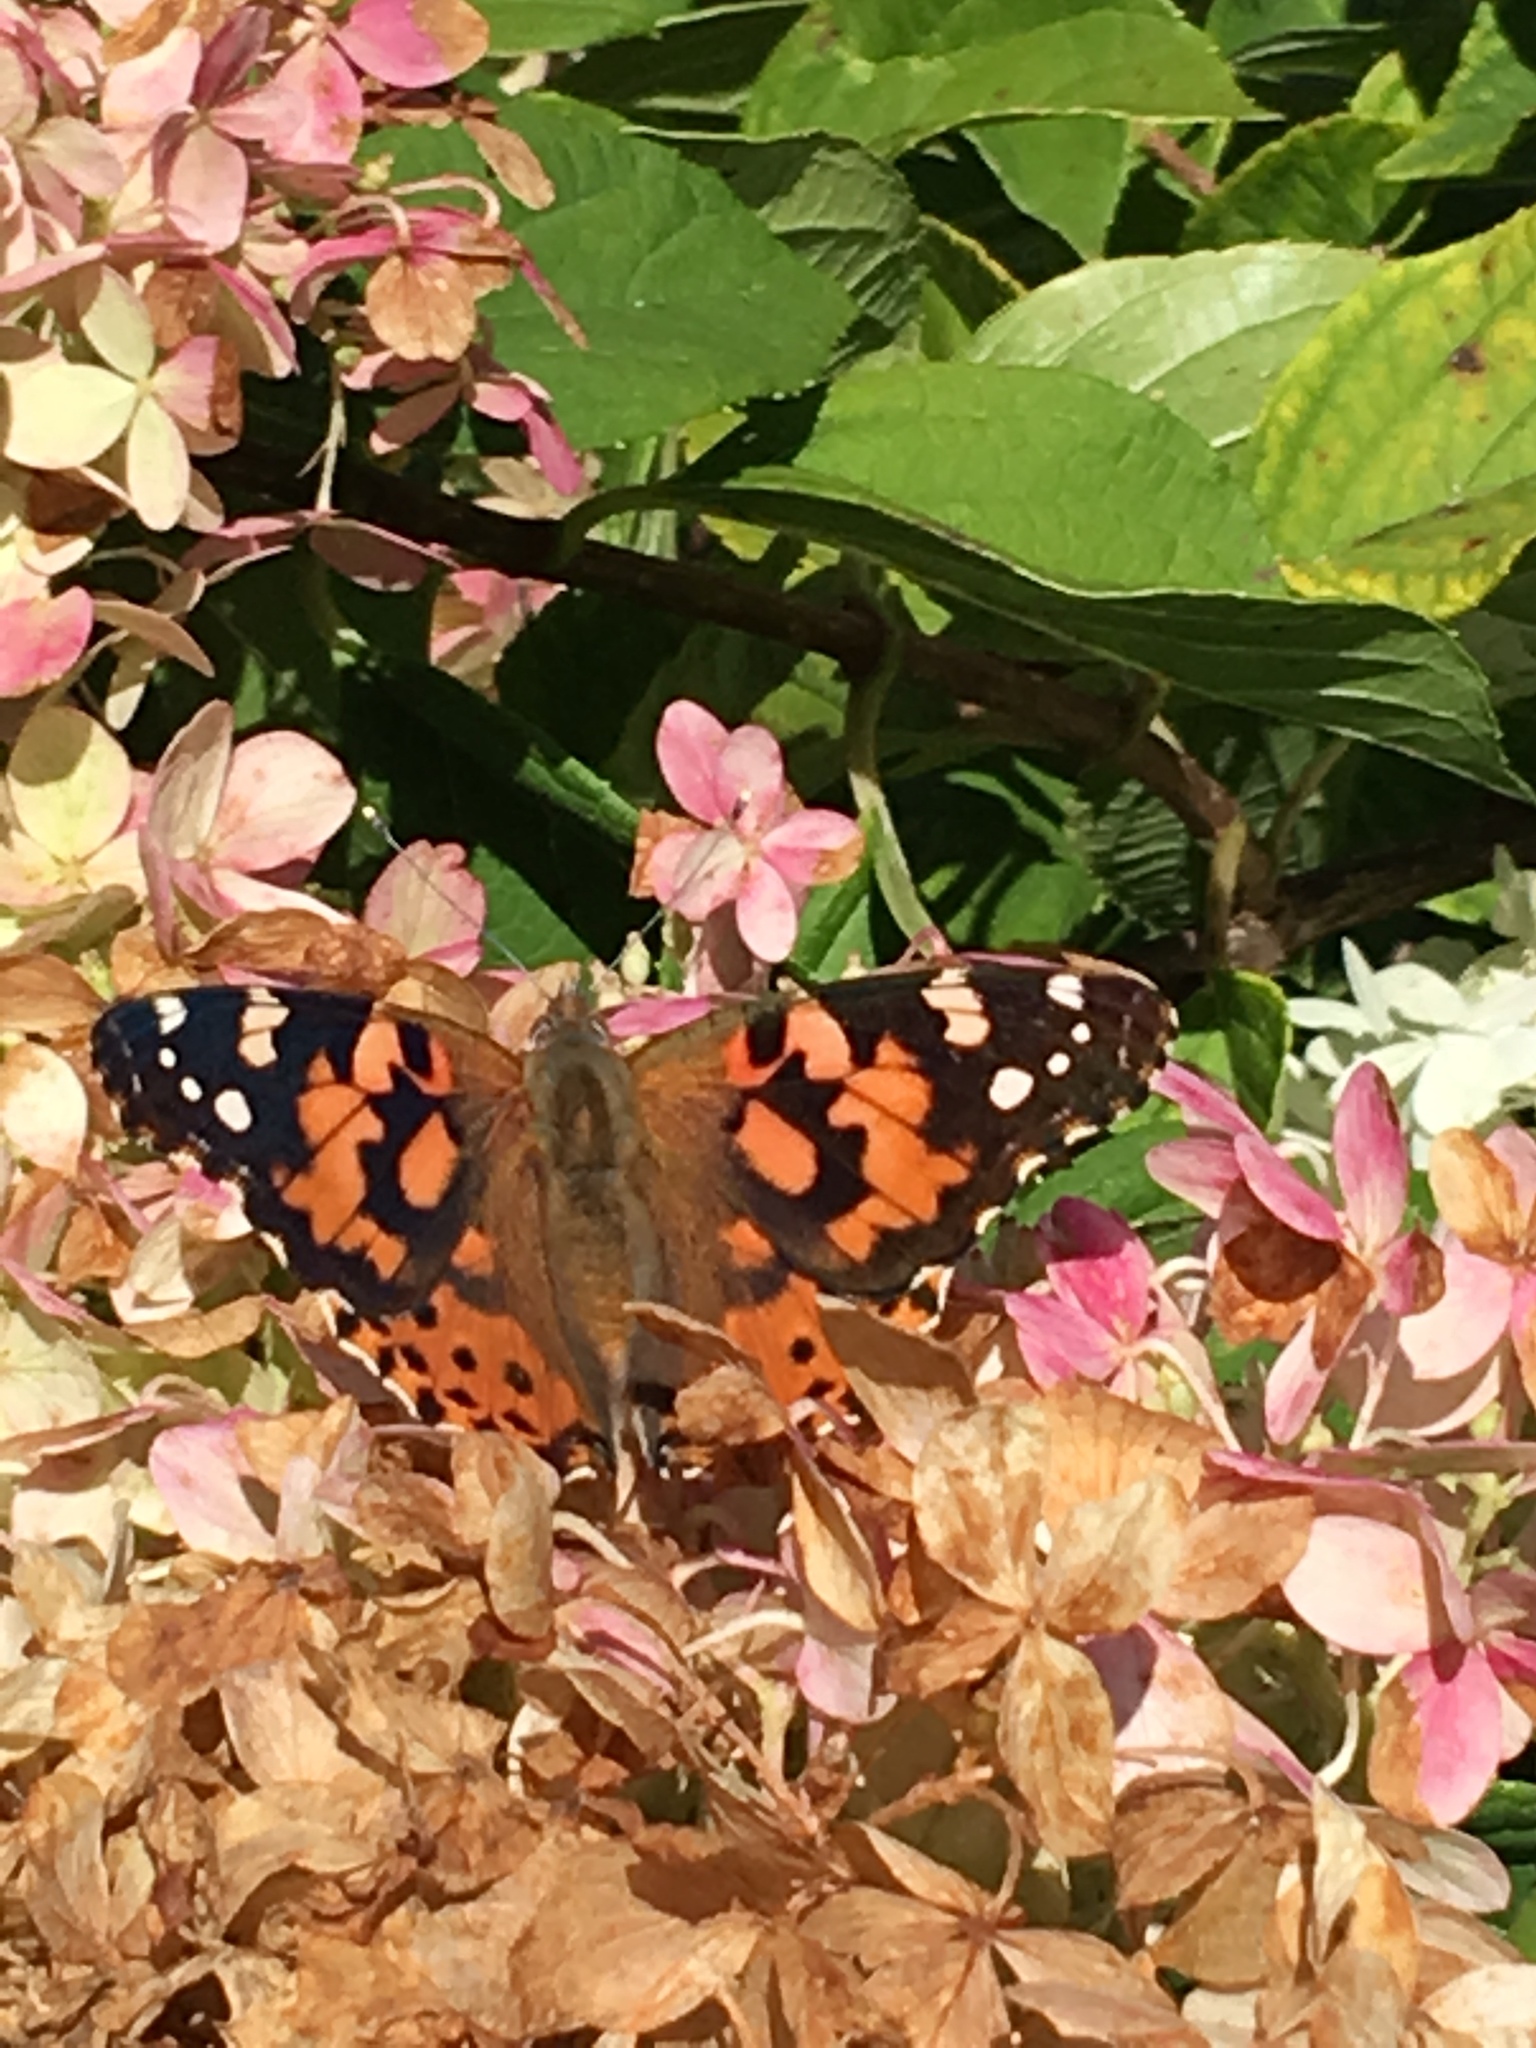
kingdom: Animalia
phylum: Arthropoda
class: Insecta
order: Lepidoptera
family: Nymphalidae
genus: Vanessa
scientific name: Vanessa cardui
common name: Painted lady
